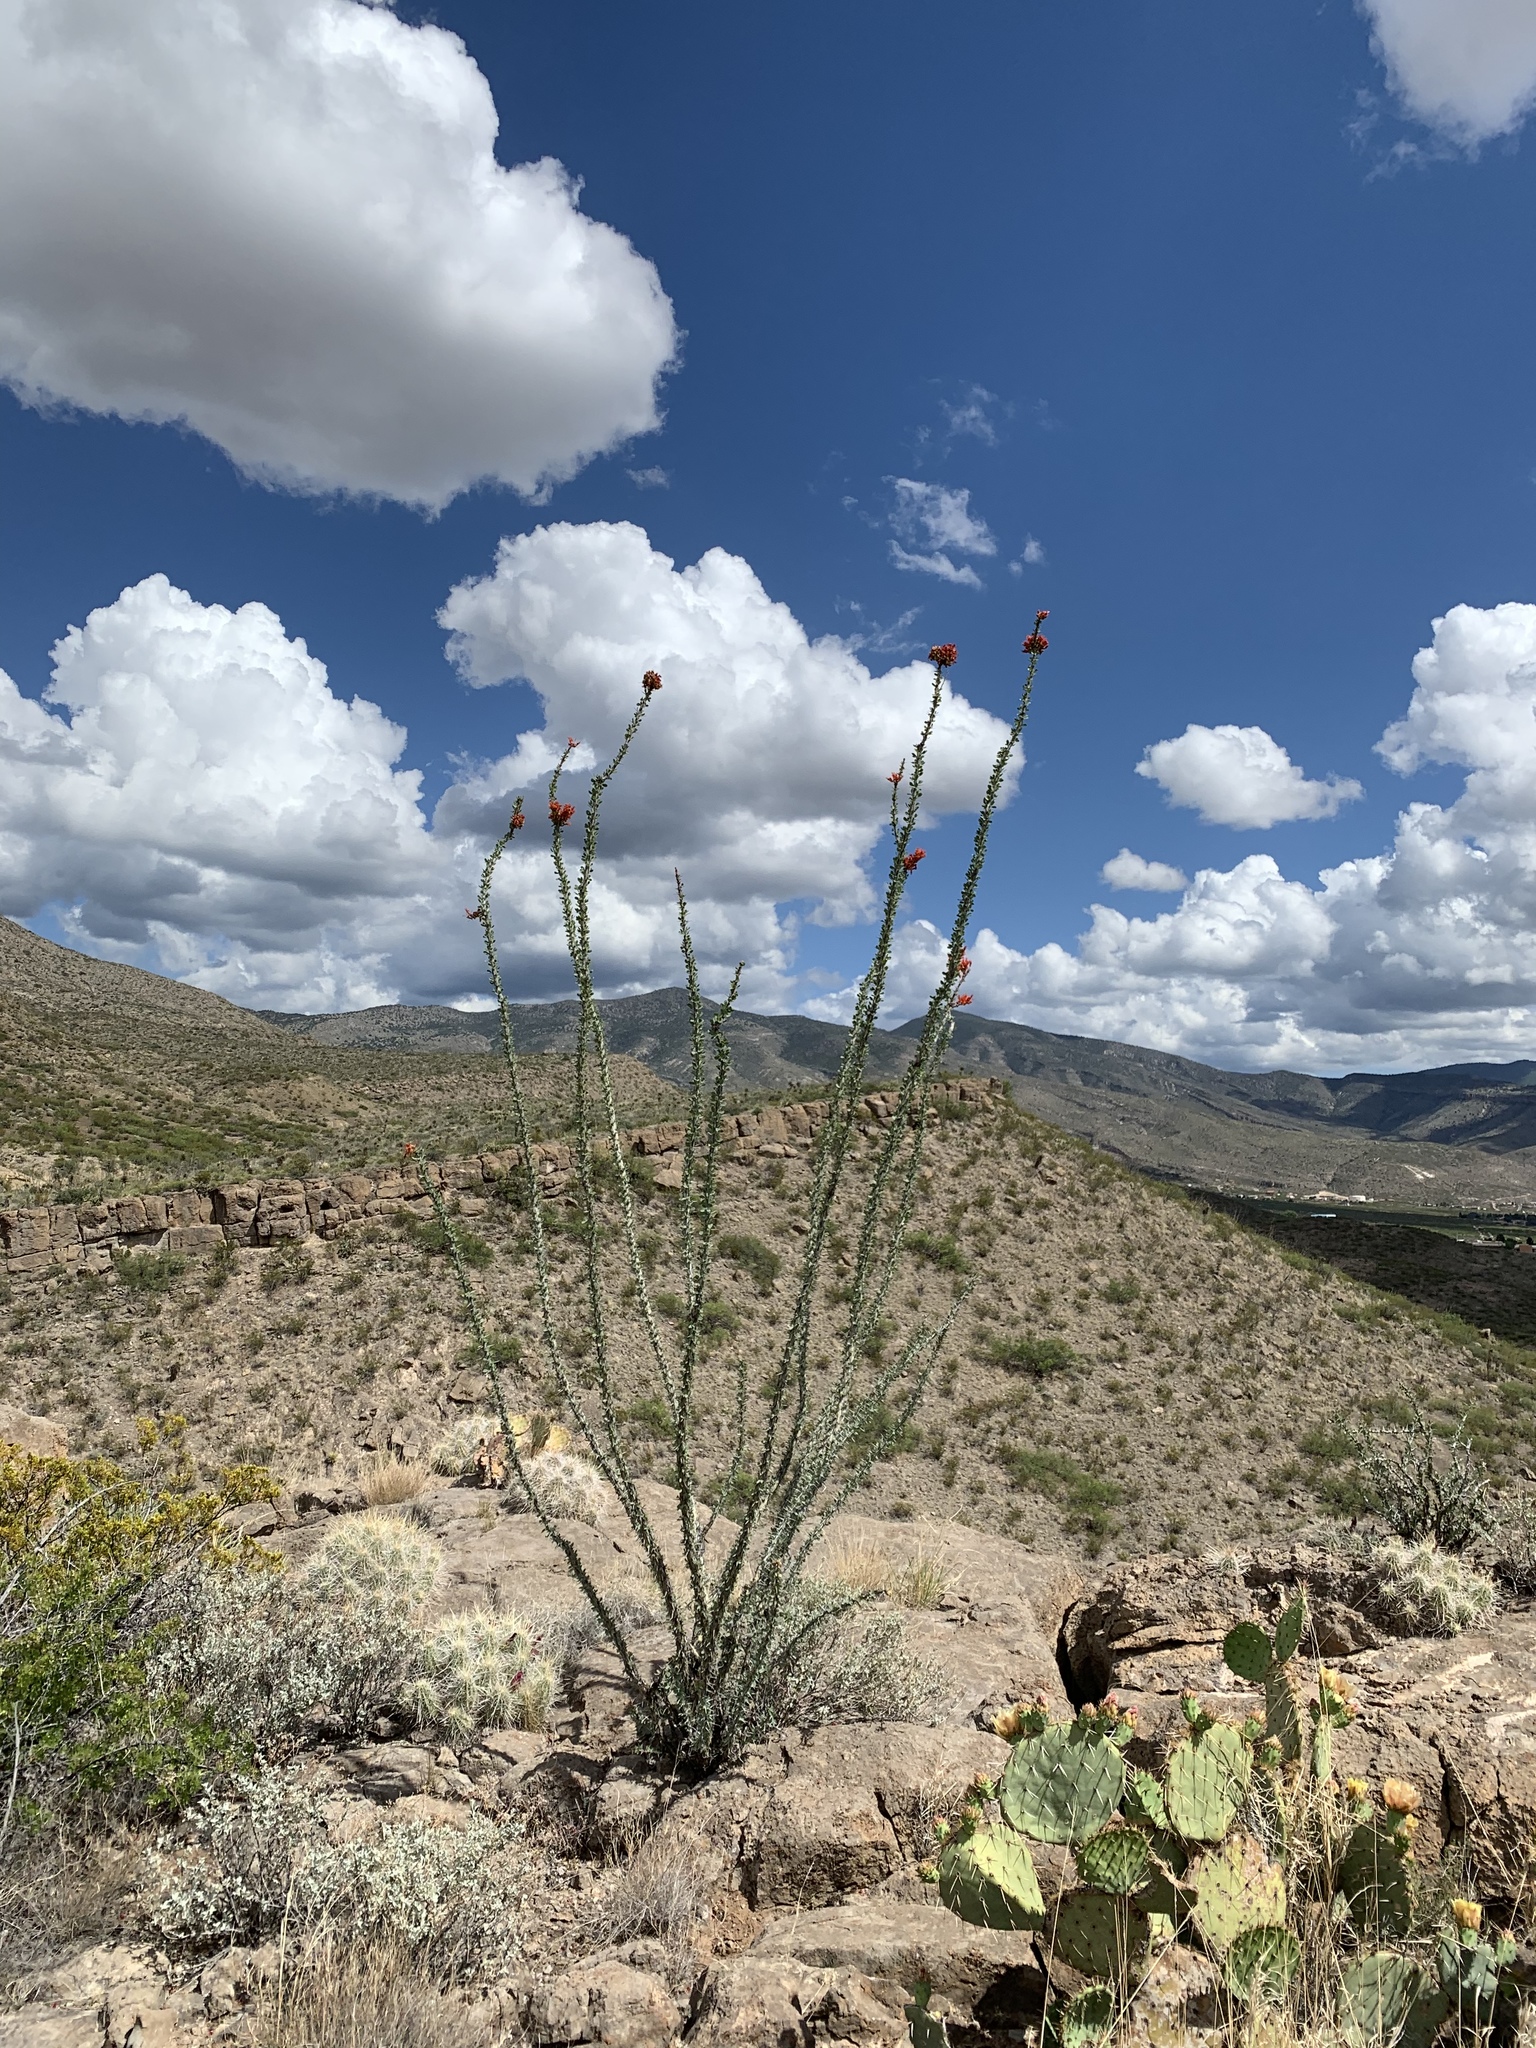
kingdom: Plantae
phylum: Tracheophyta
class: Magnoliopsida
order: Ericales
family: Fouquieriaceae
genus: Fouquieria
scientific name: Fouquieria splendens
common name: Vine-cactus
